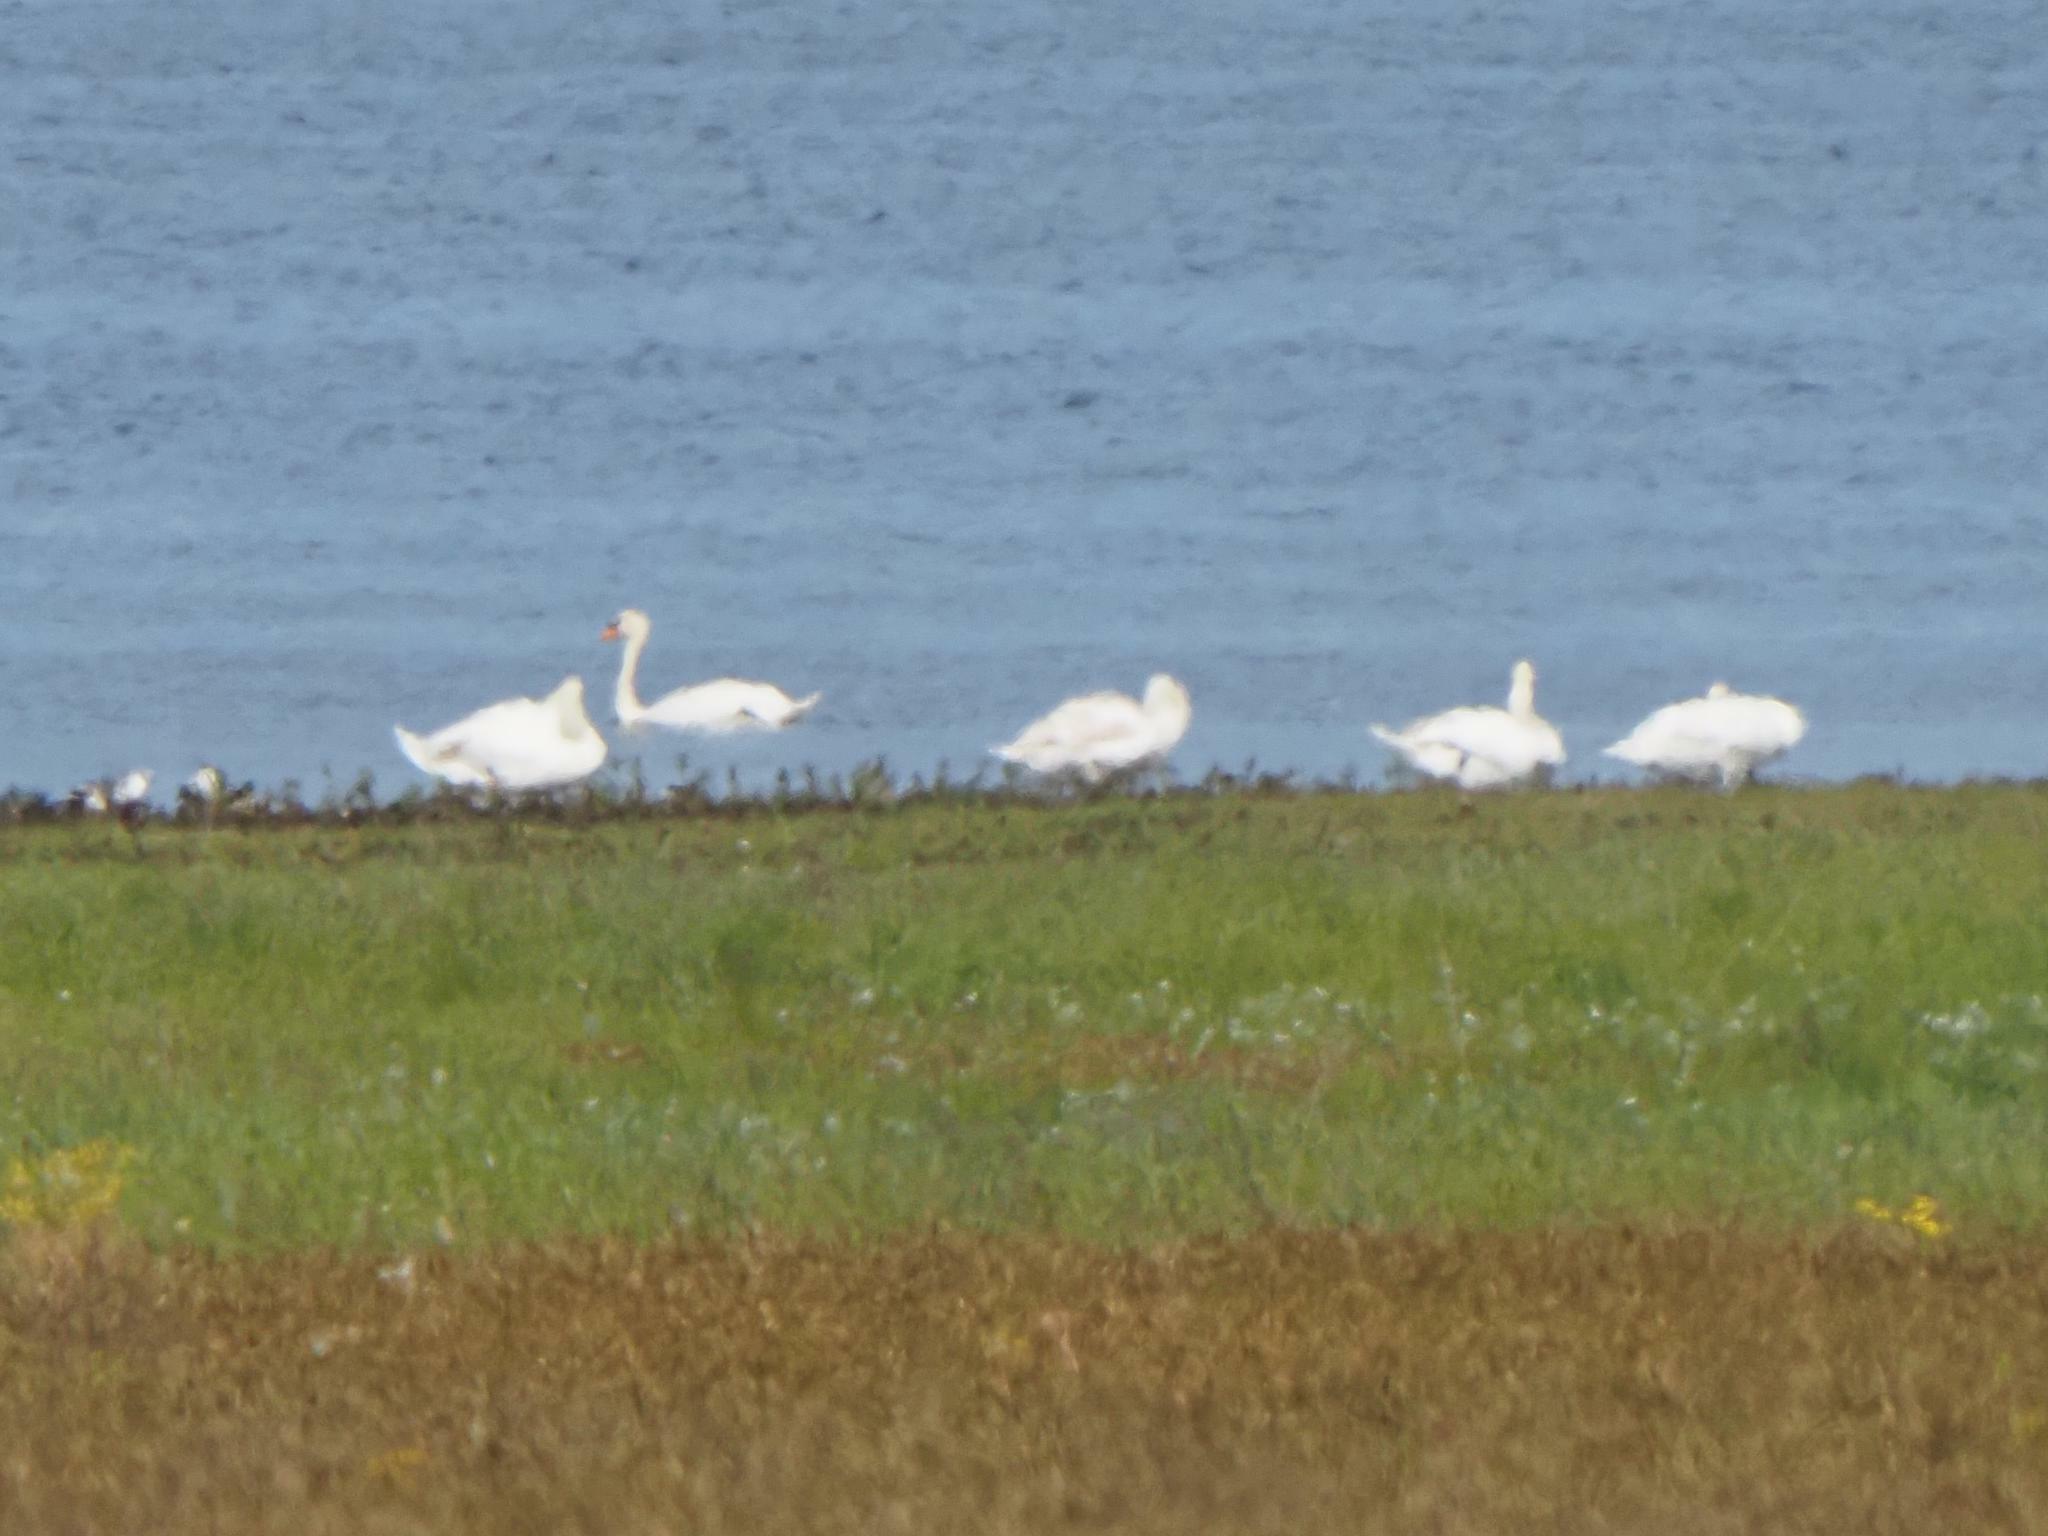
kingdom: Animalia
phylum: Chordata
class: Aves
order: Anseriformes
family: Anatidae
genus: Cygnus
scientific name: Cygnus olor
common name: Mute swan
